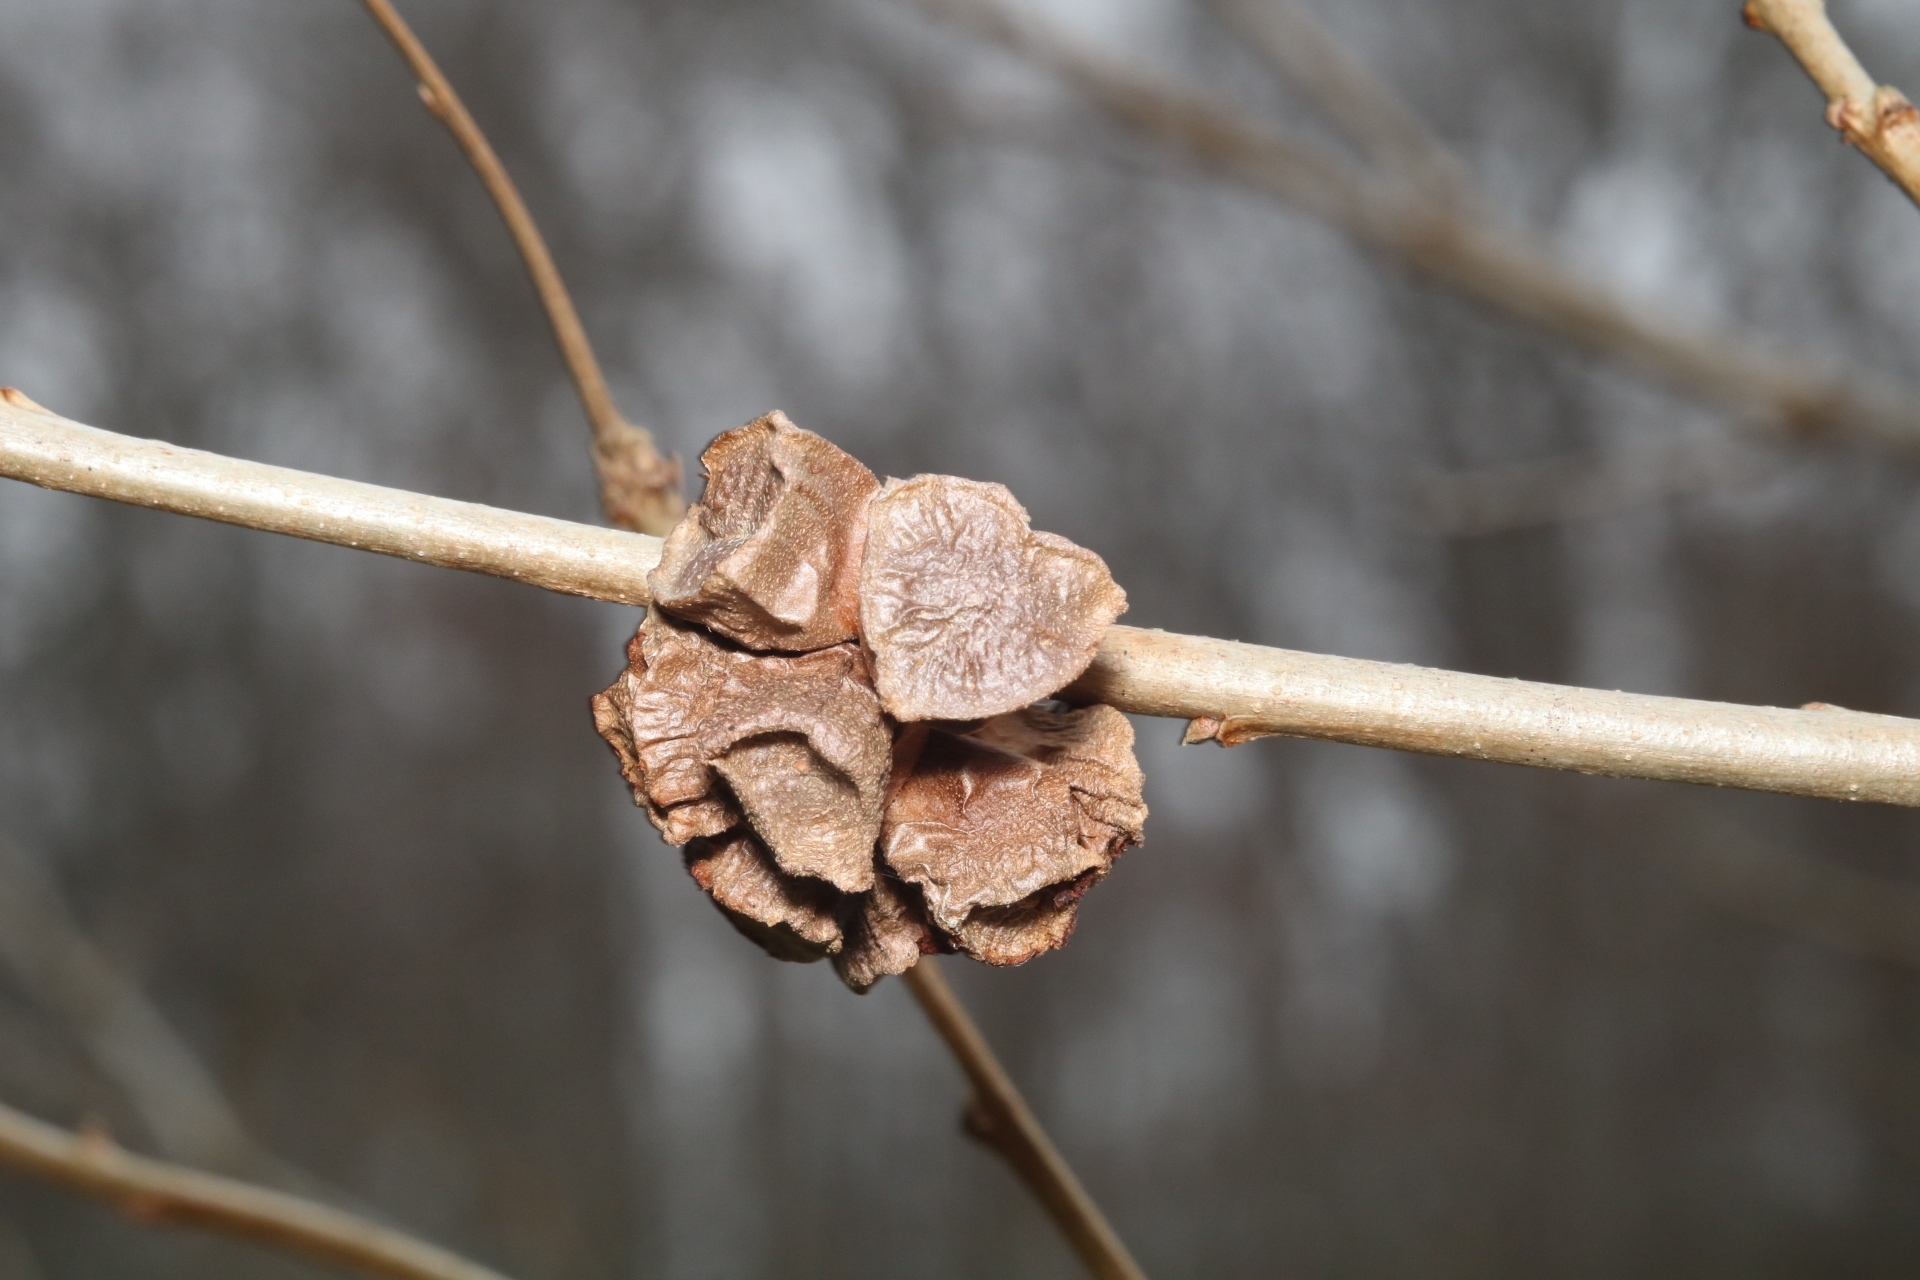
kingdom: Animalia
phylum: Arthropoda
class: Insecta
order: Hymenoptera
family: Cynipidae
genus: Andricus
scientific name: Andricus
